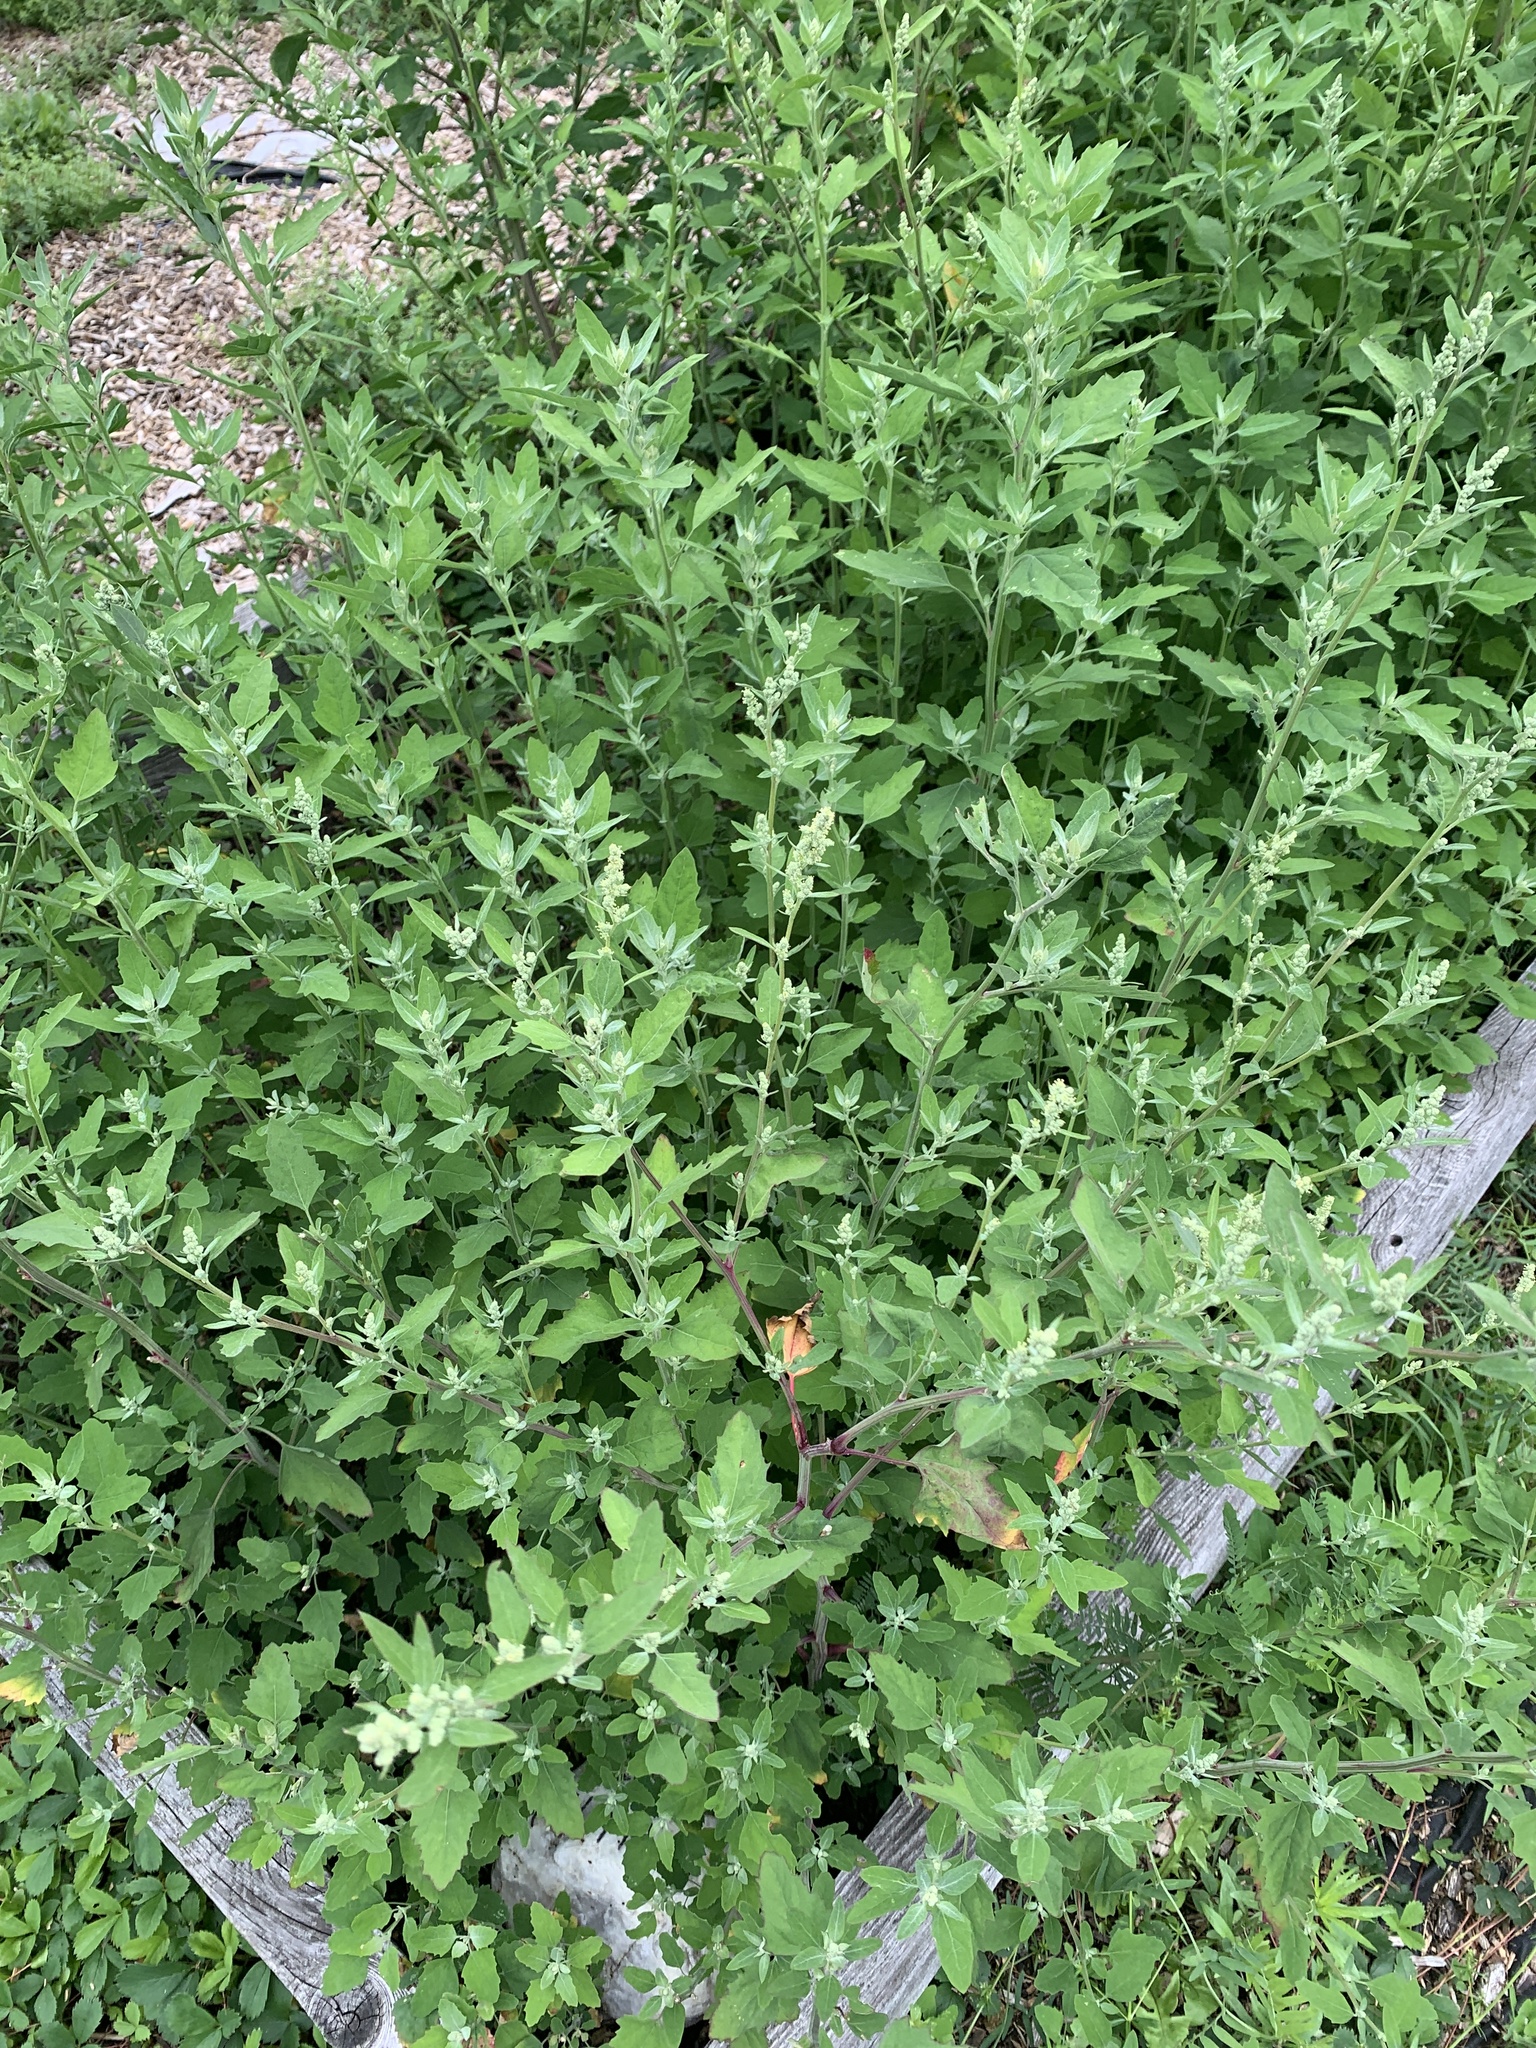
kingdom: Plantae
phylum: Tracheophyta
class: Magnoliopsida
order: Caryophyllales
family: Amaranthaceae
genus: Chenopodium
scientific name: Chenopodium album
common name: Fat-hen
